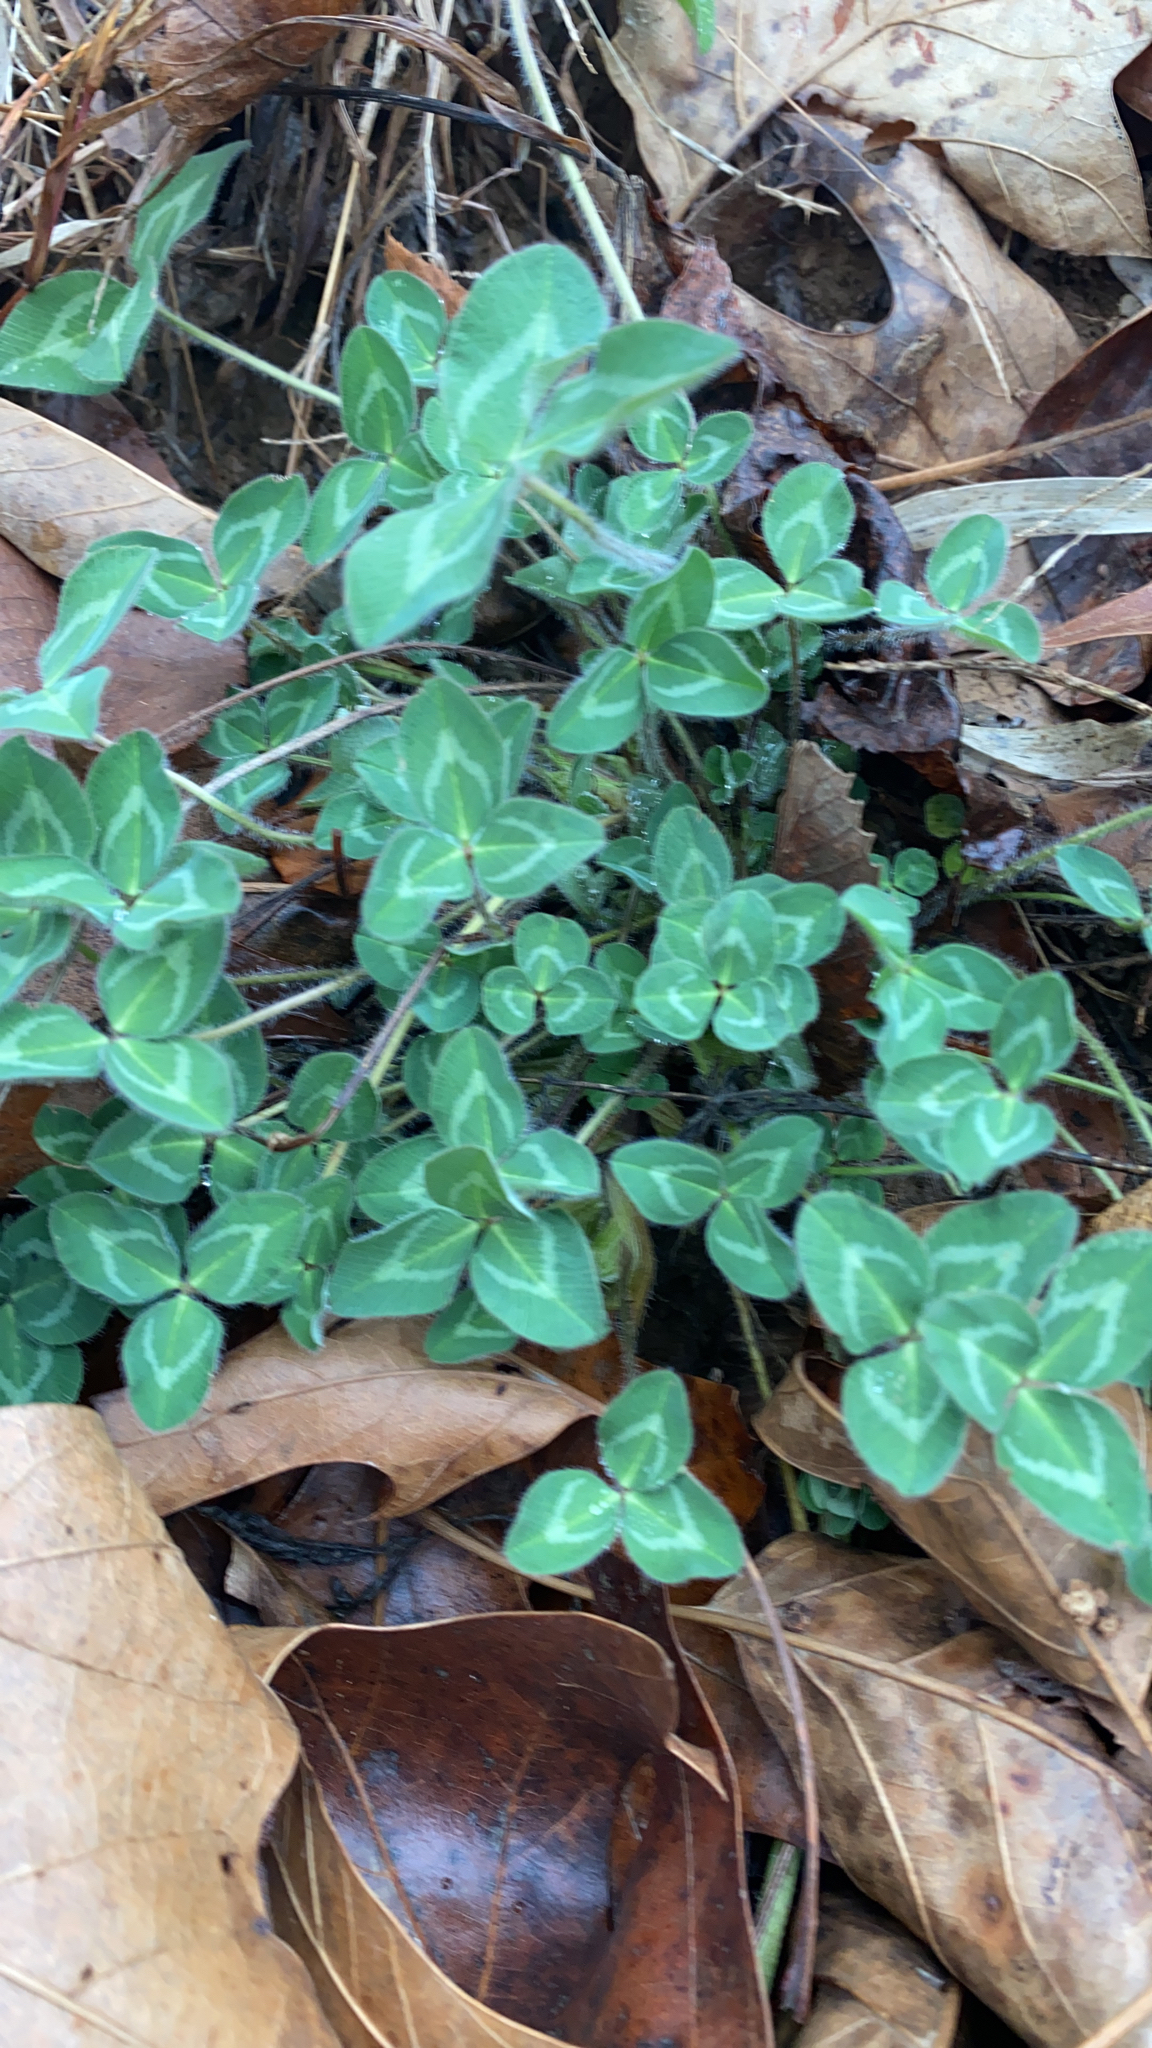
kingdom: Plantae
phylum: Tracheophyta
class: Magnoliopsida
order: Fabales
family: Fabaceae
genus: Trifolium
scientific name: Trifolium pratense
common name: Red clover
